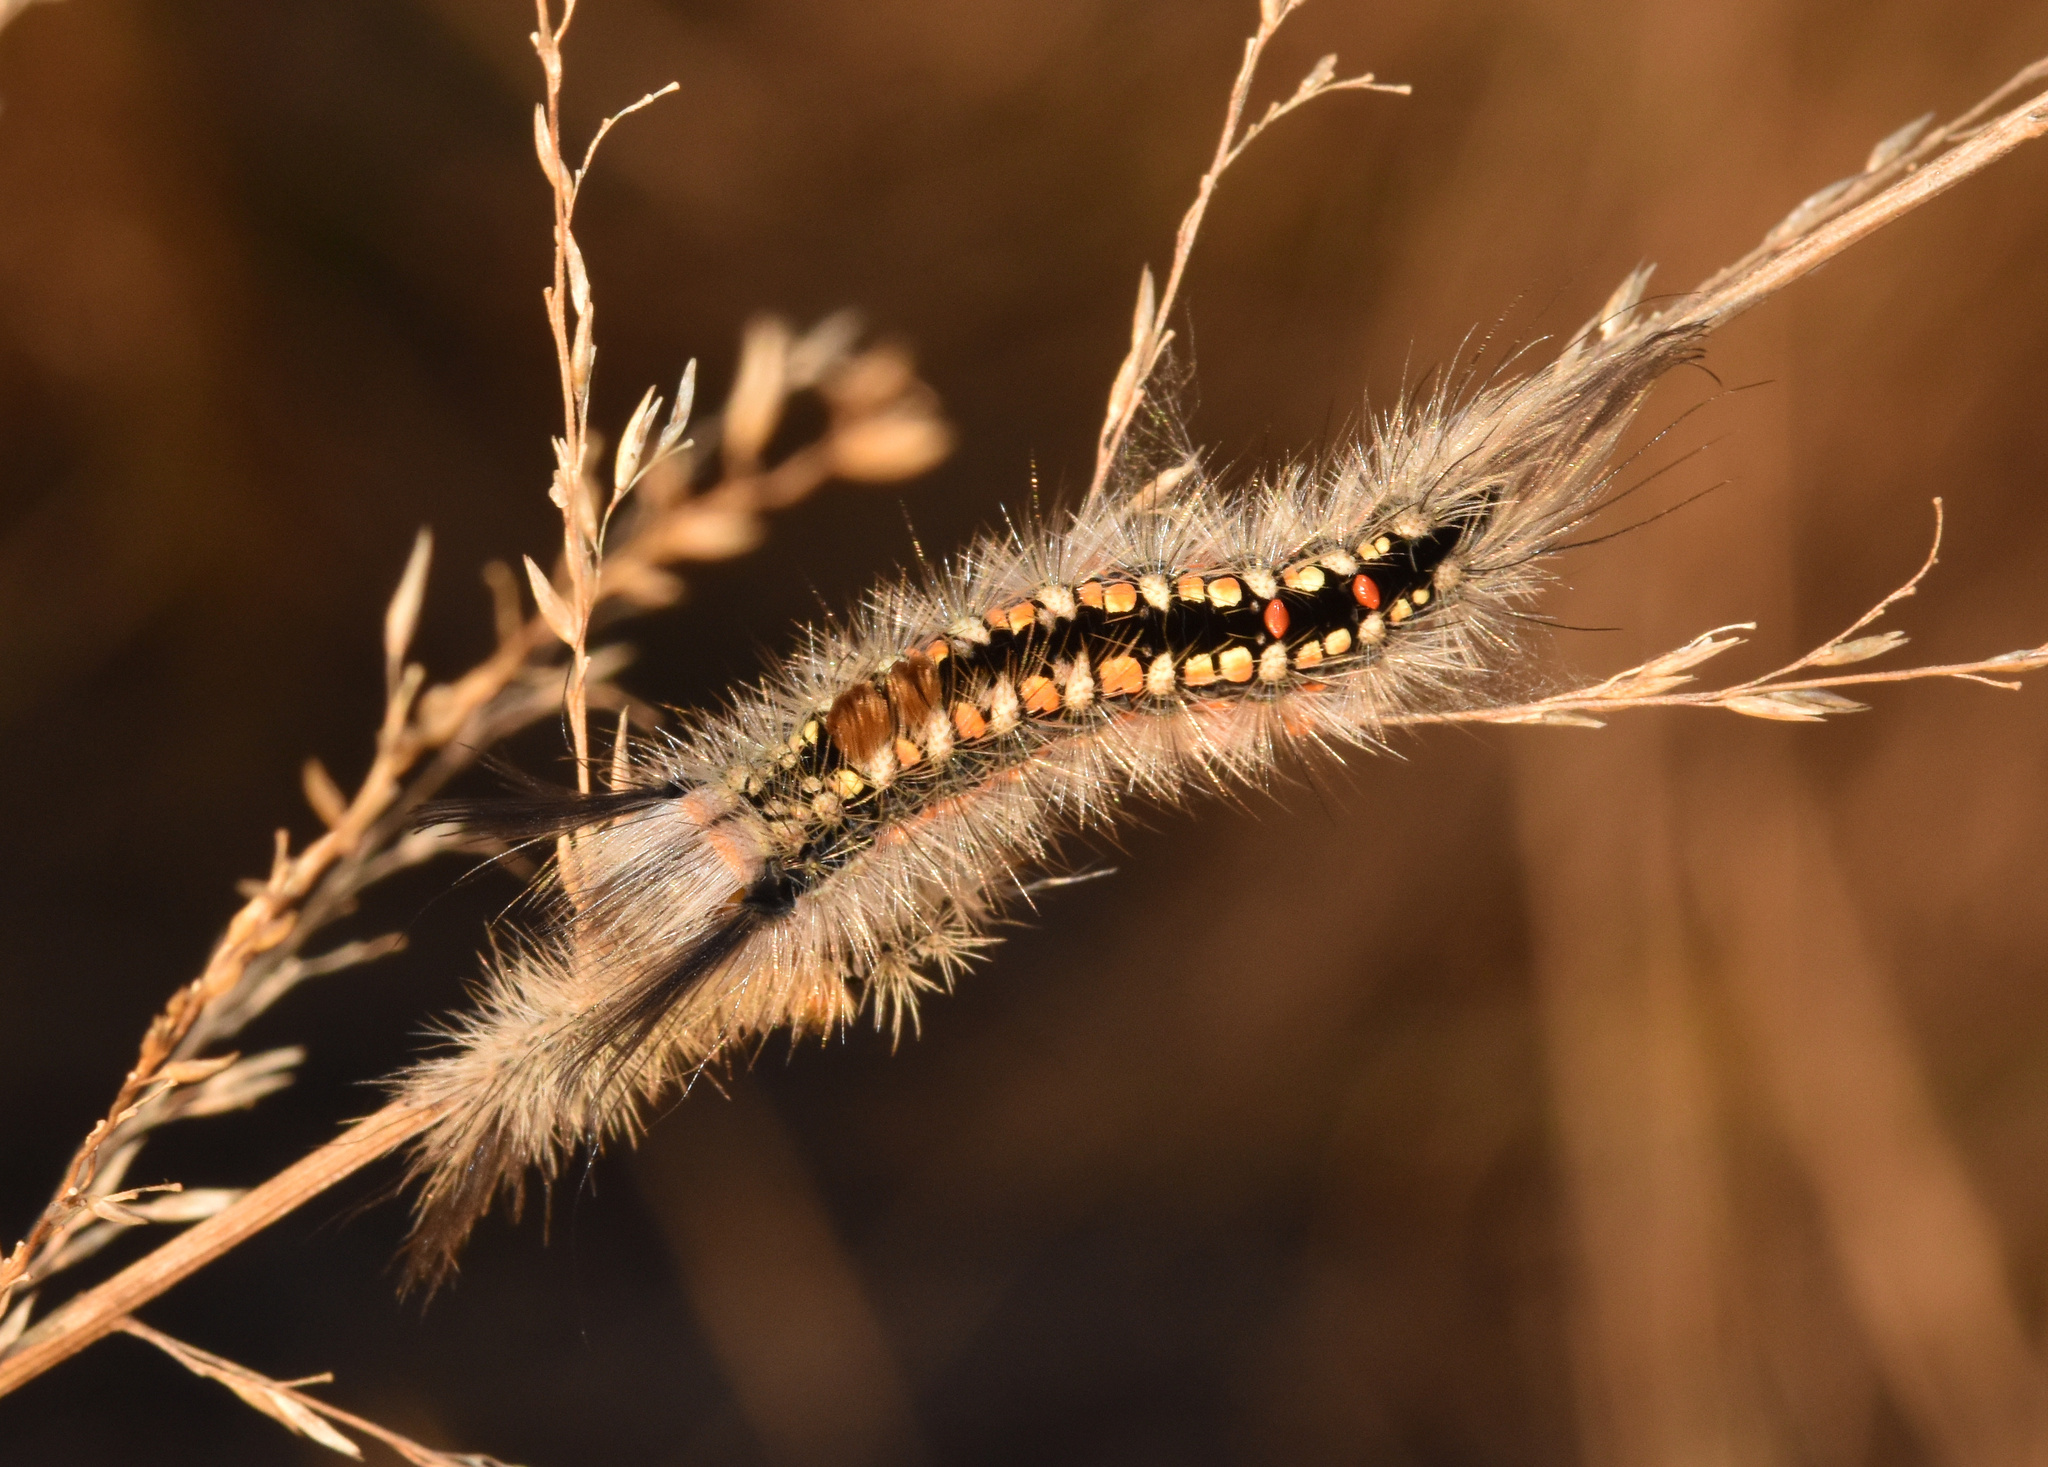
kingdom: Animalia
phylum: Arthropoda
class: Insecta
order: Lepidoptera
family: Erebidae
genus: Psalis
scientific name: Psalis africana
